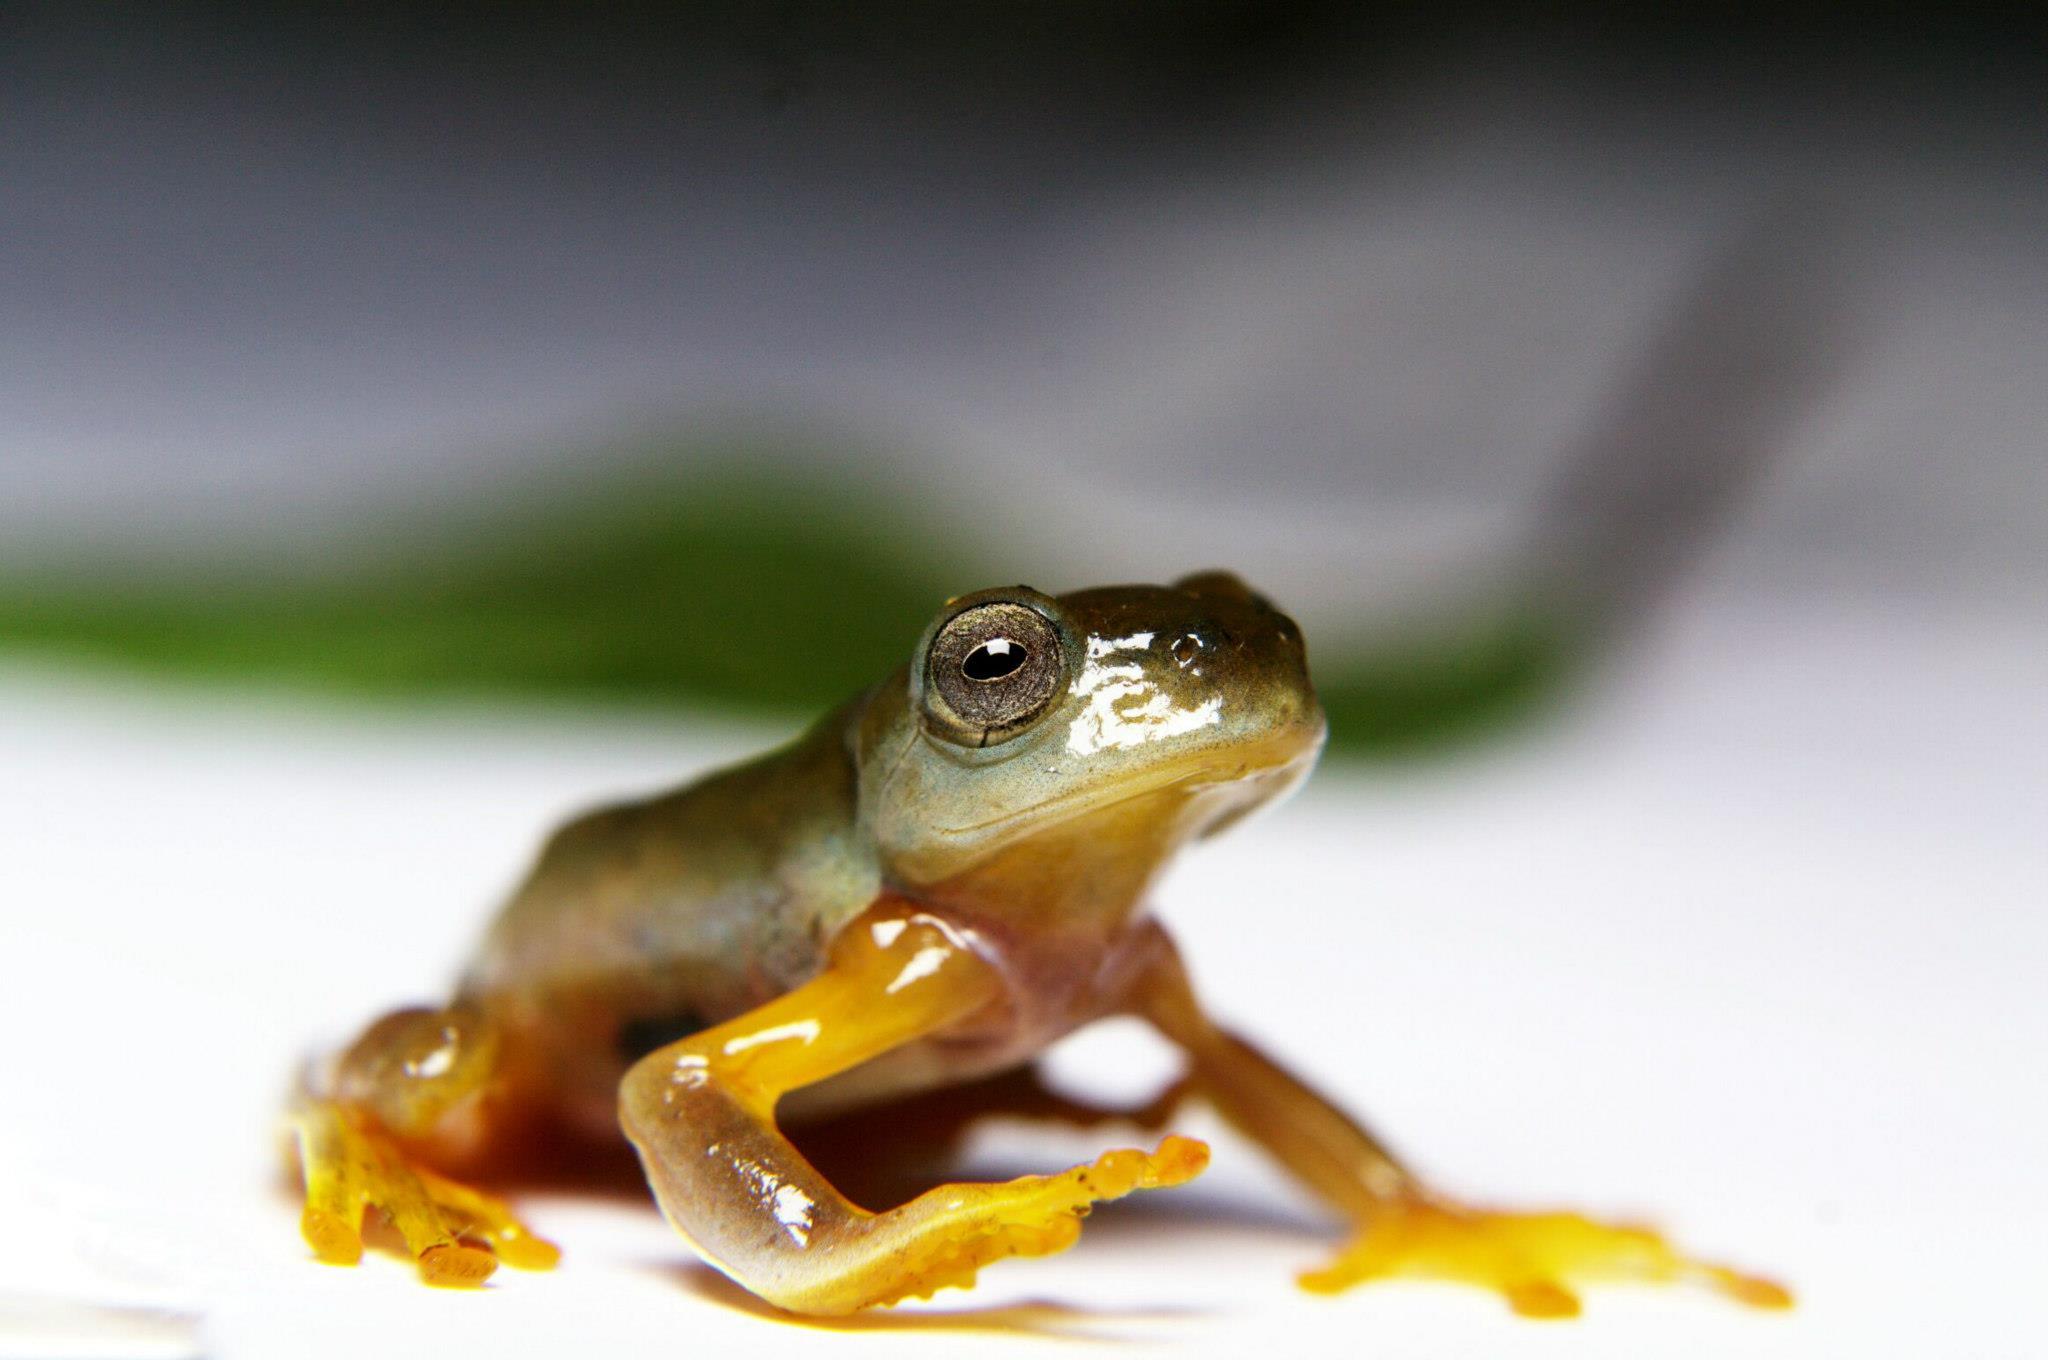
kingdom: Animalia
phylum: Chordata
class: Amphibia
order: Anura
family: Rhacophoridae
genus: Rhacophorus
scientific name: Rhacophorus bipunctatus
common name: Twin-spotted tree frog
